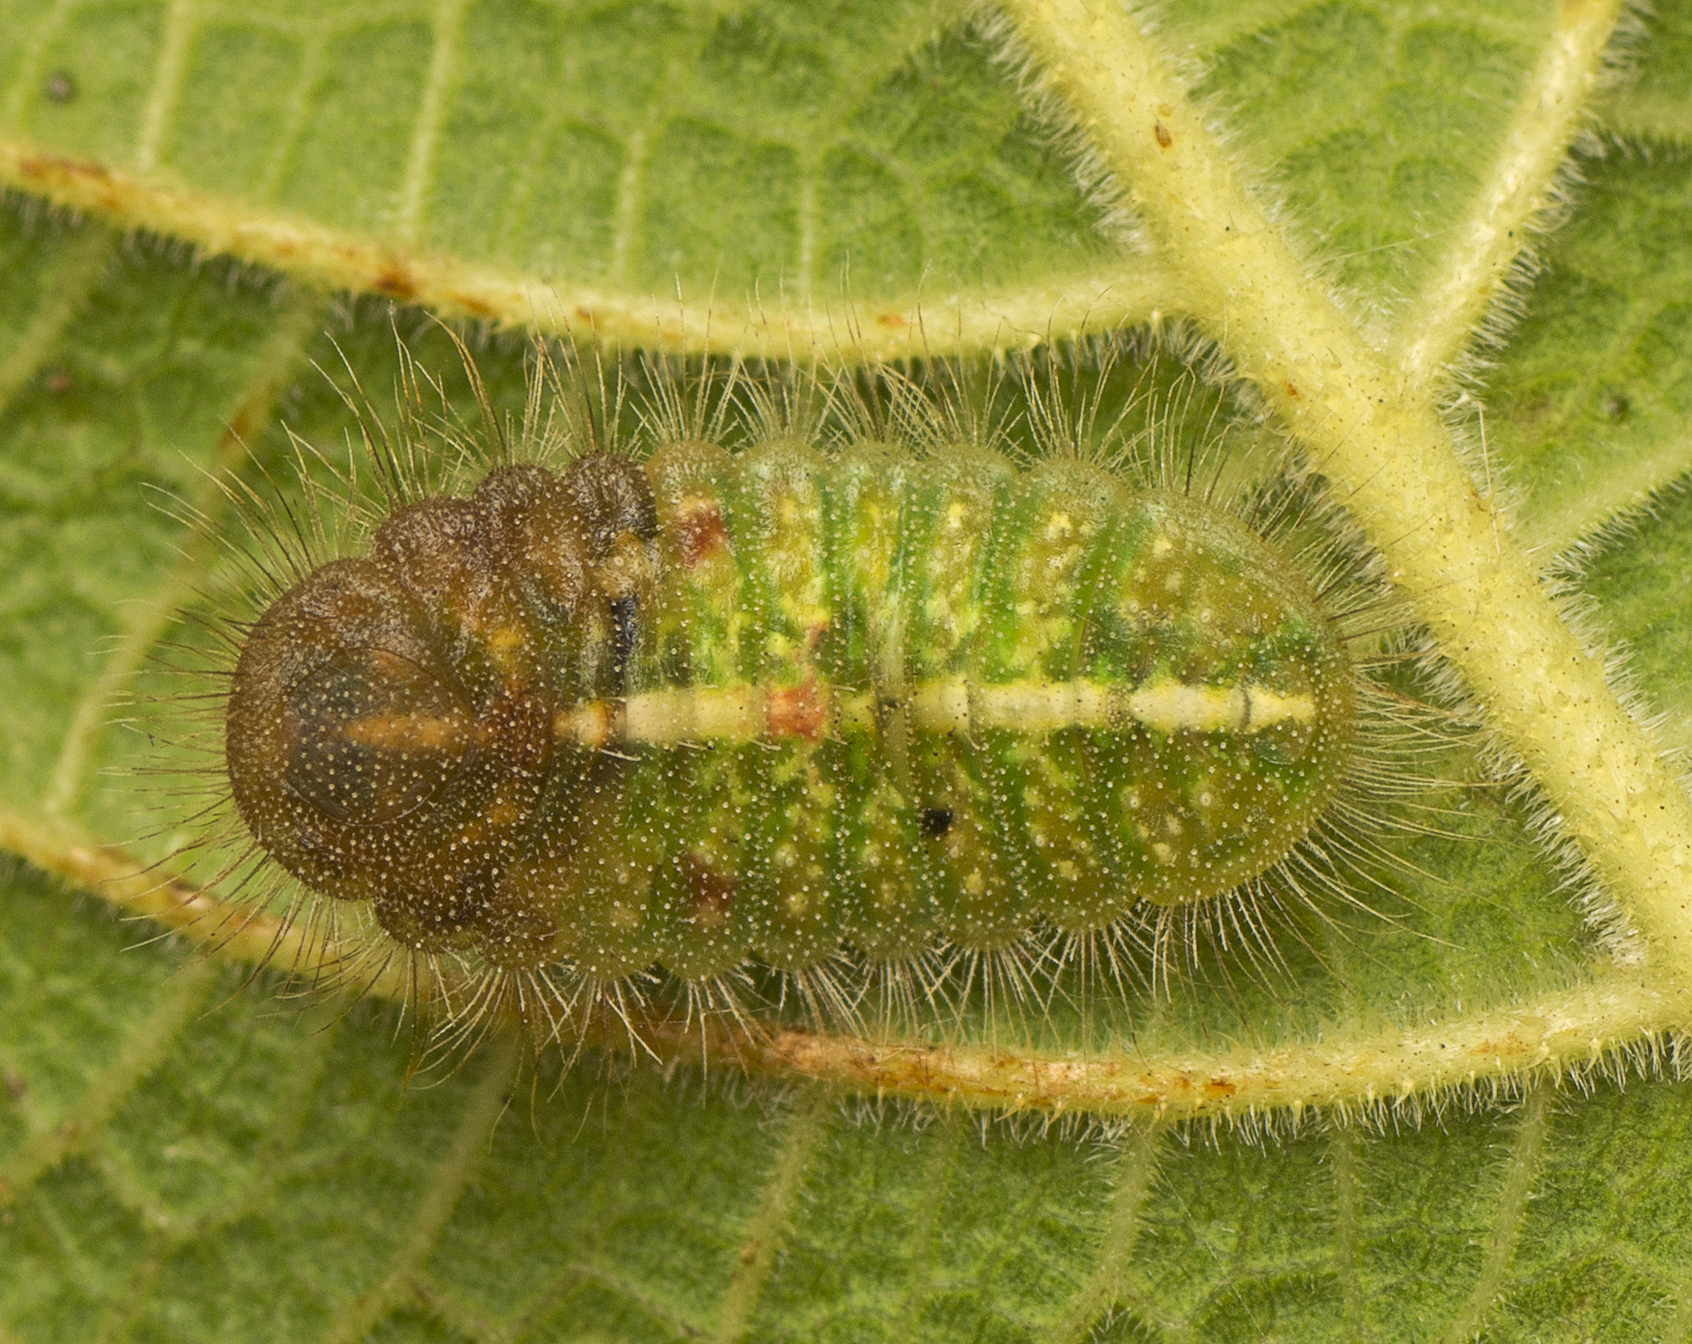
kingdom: Animalia
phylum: Arthropoda
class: Insecta
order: Lepidoptera
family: Lycaenidae
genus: Philiris
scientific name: Philiris innotatus
